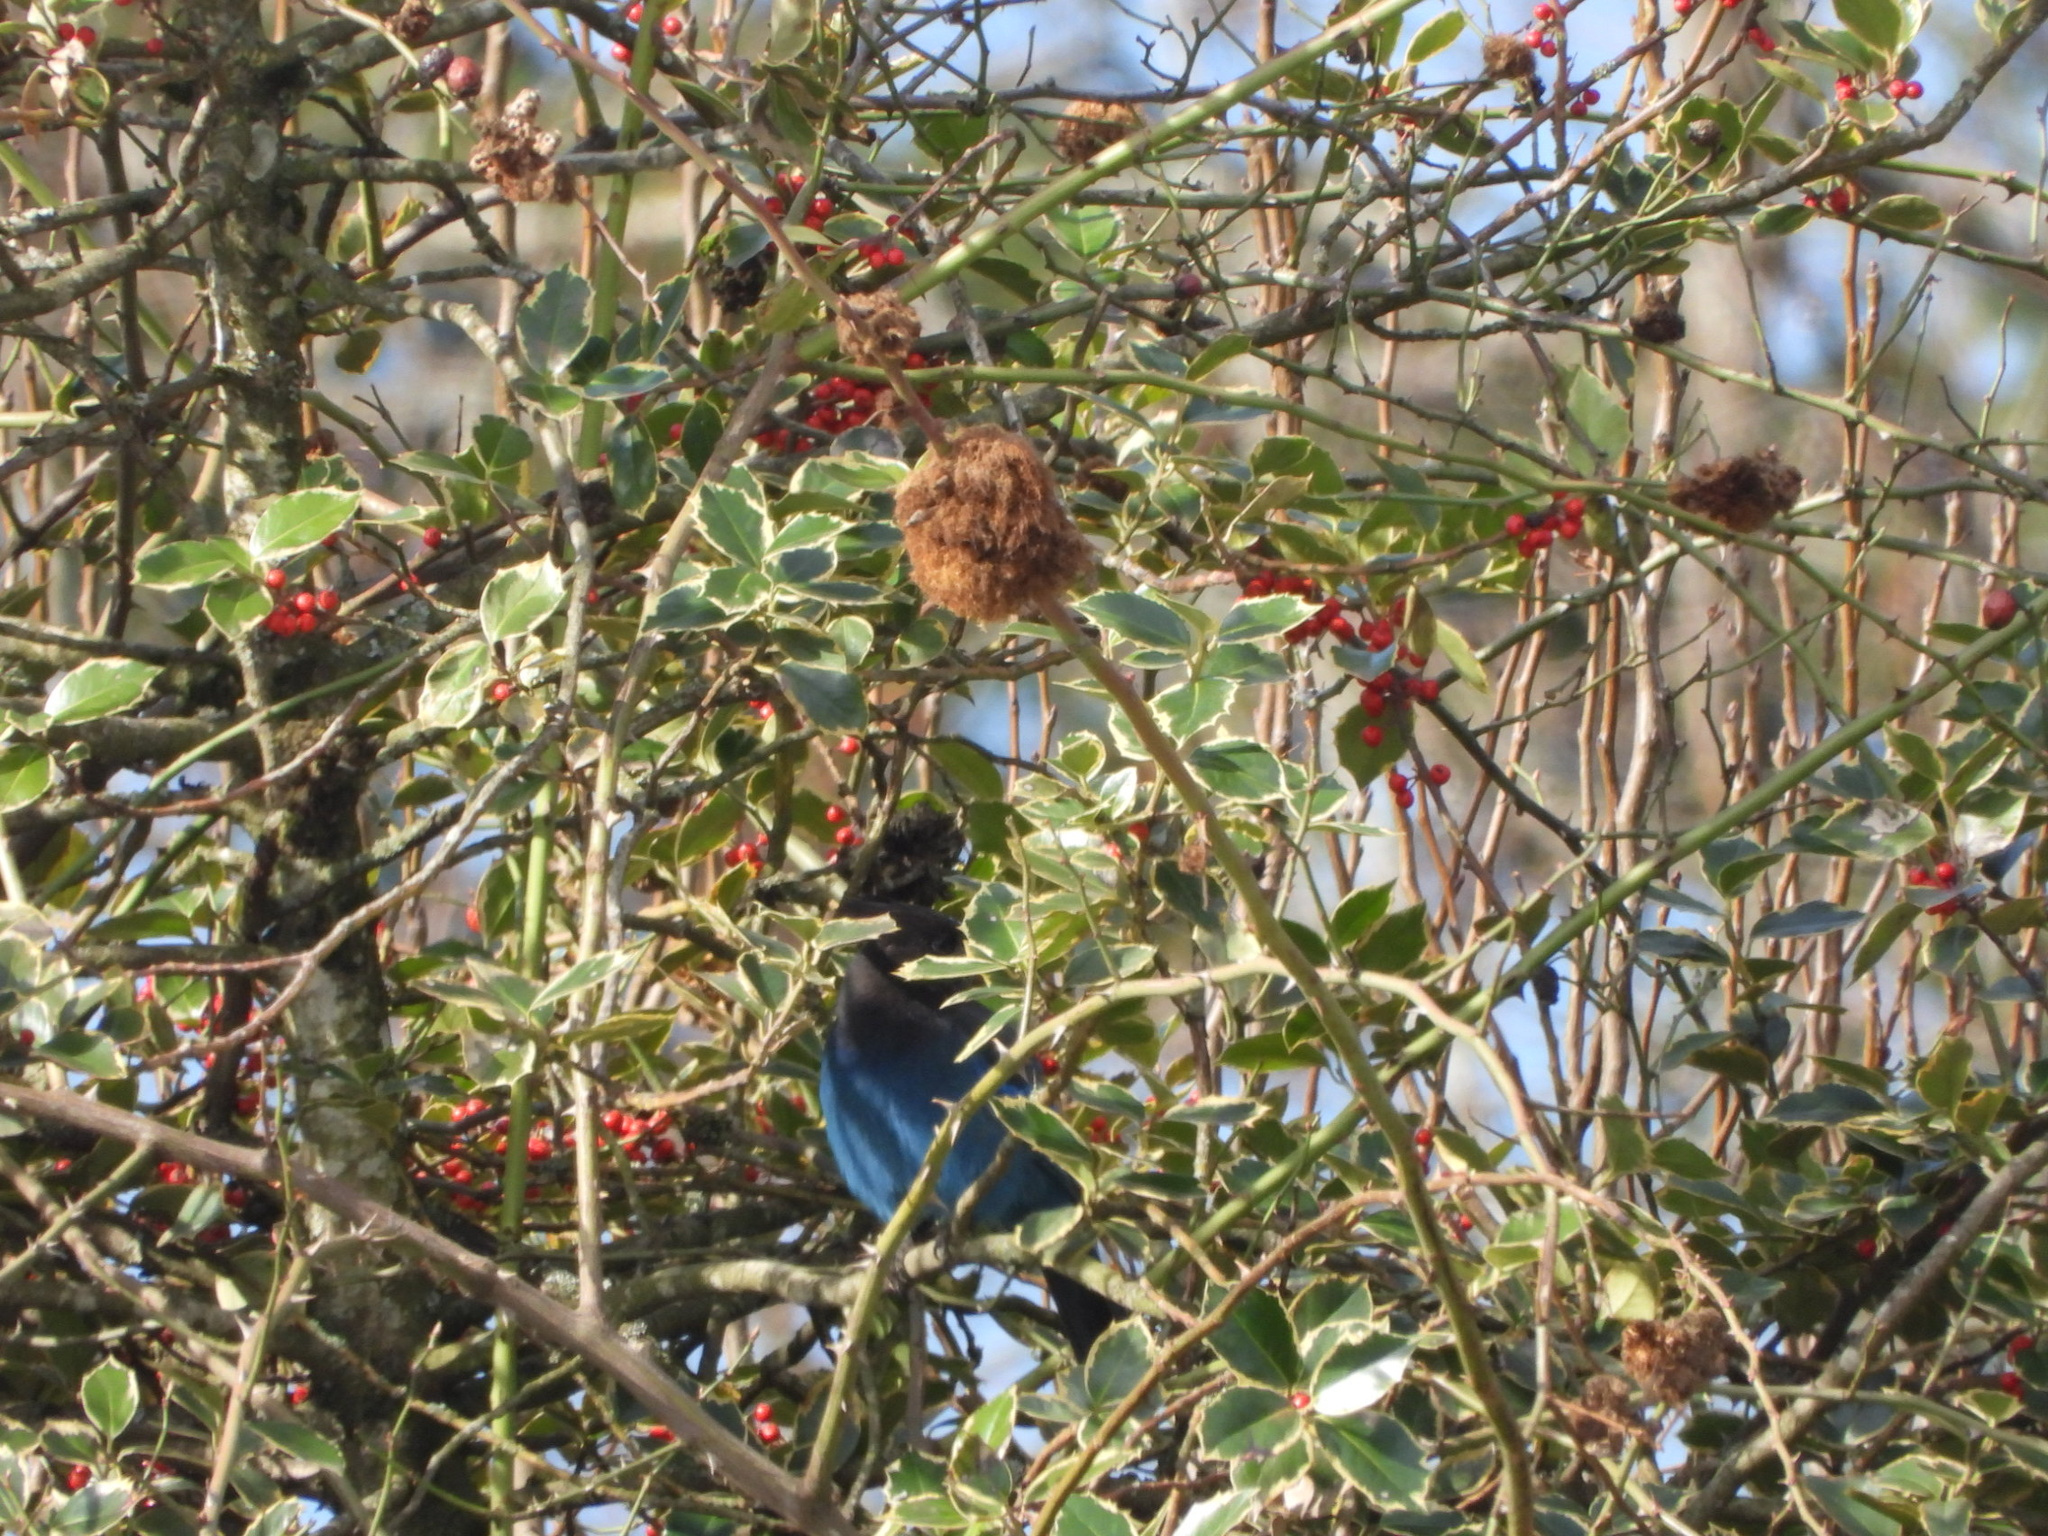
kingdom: Animalia
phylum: Chordata
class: Aves
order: Passeriformes
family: Corvidae
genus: Cyanocitta
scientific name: Cyanocitta stelleri
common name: Steller's jay
